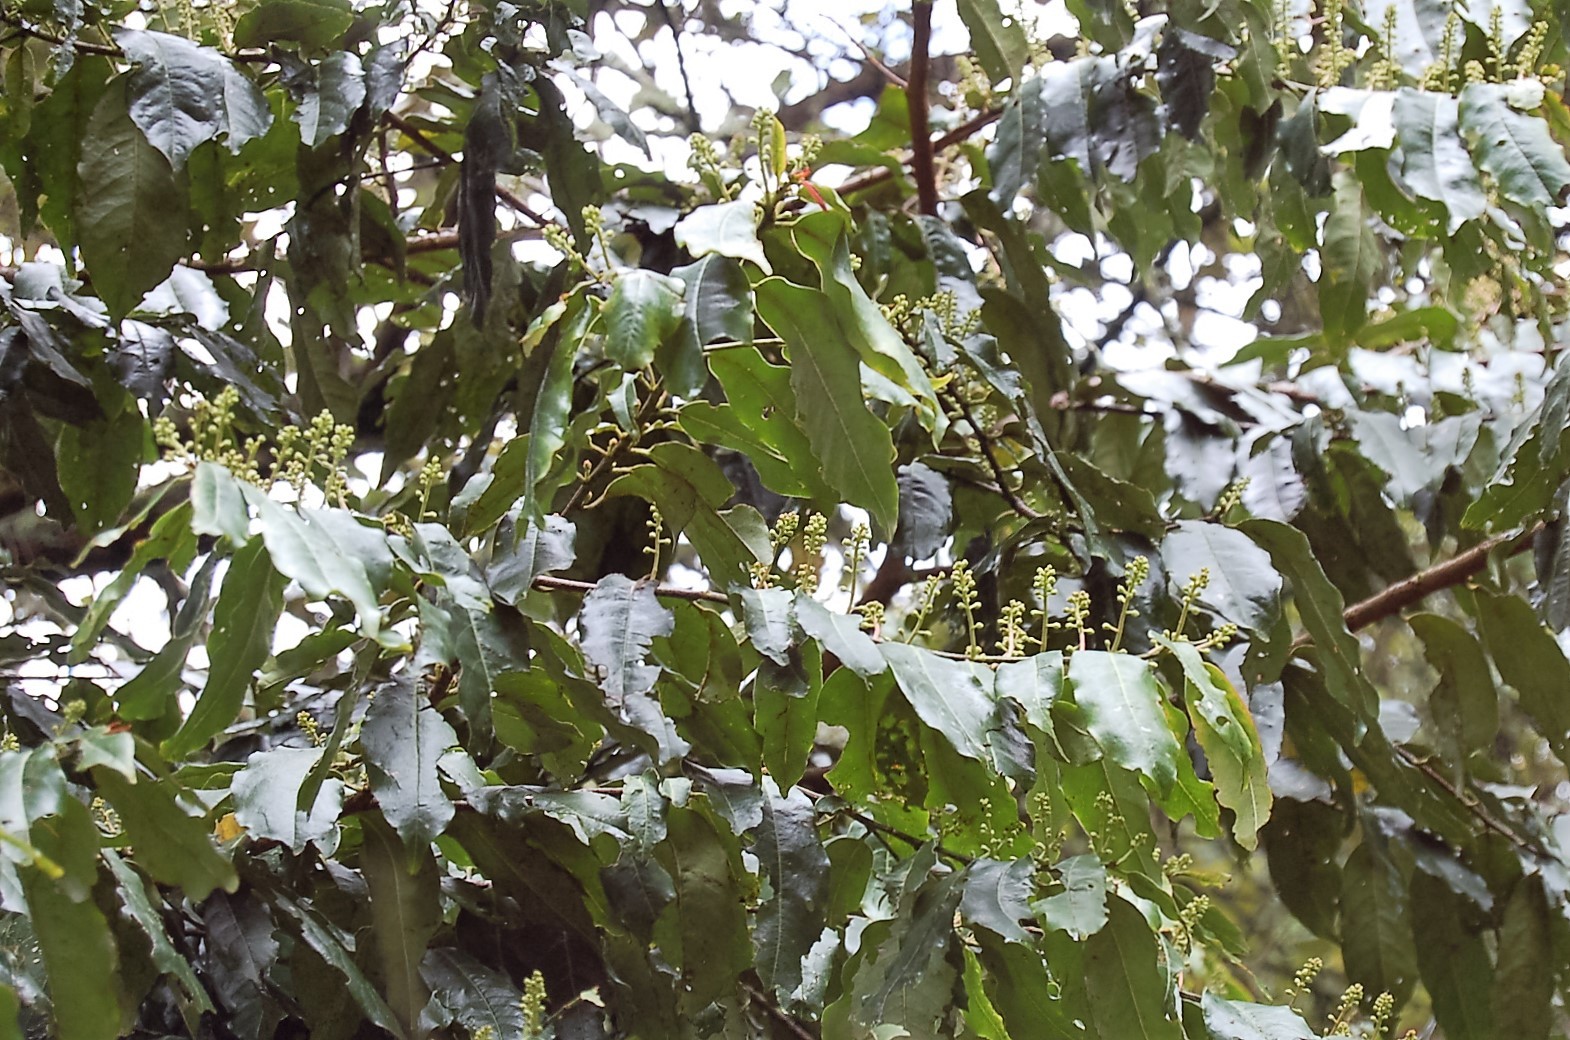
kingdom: Plantae
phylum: Tracheophyta
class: Magnoliopsida
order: Rosales
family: Rosaceae
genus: Prunus
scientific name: Prunus rhamnoides
